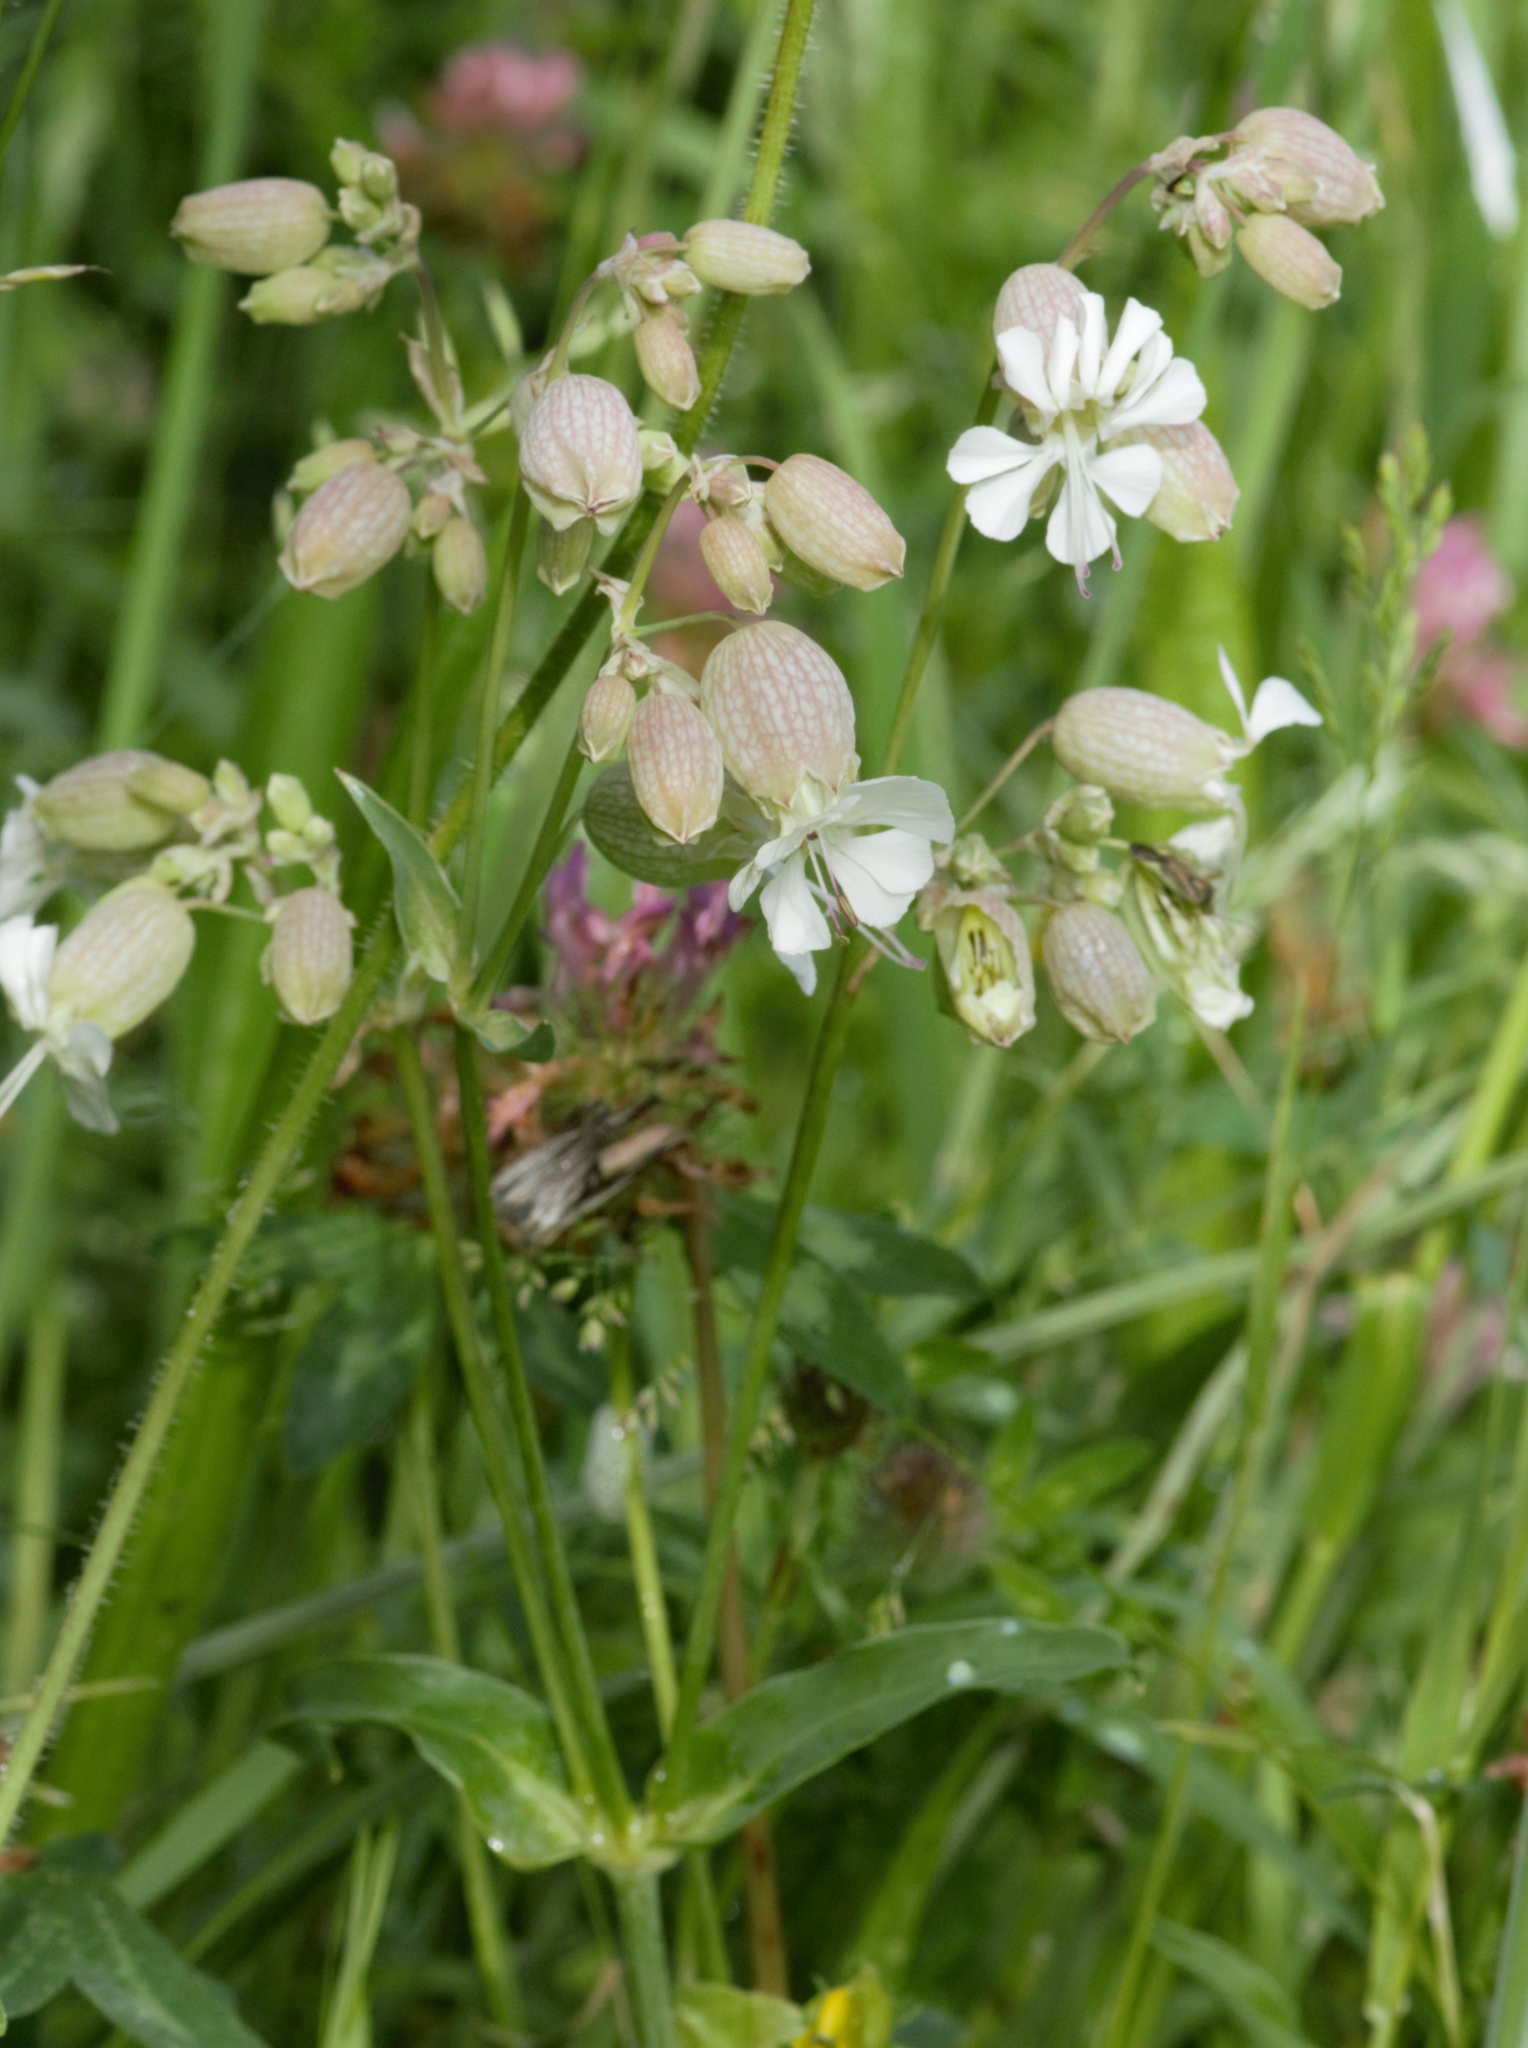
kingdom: Plantae
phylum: Tracheophyta
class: Magnoliopsida
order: Caryophyllales
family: Caryophyllaceae
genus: Silene
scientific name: Silene vulgaris
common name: Bladder campion
